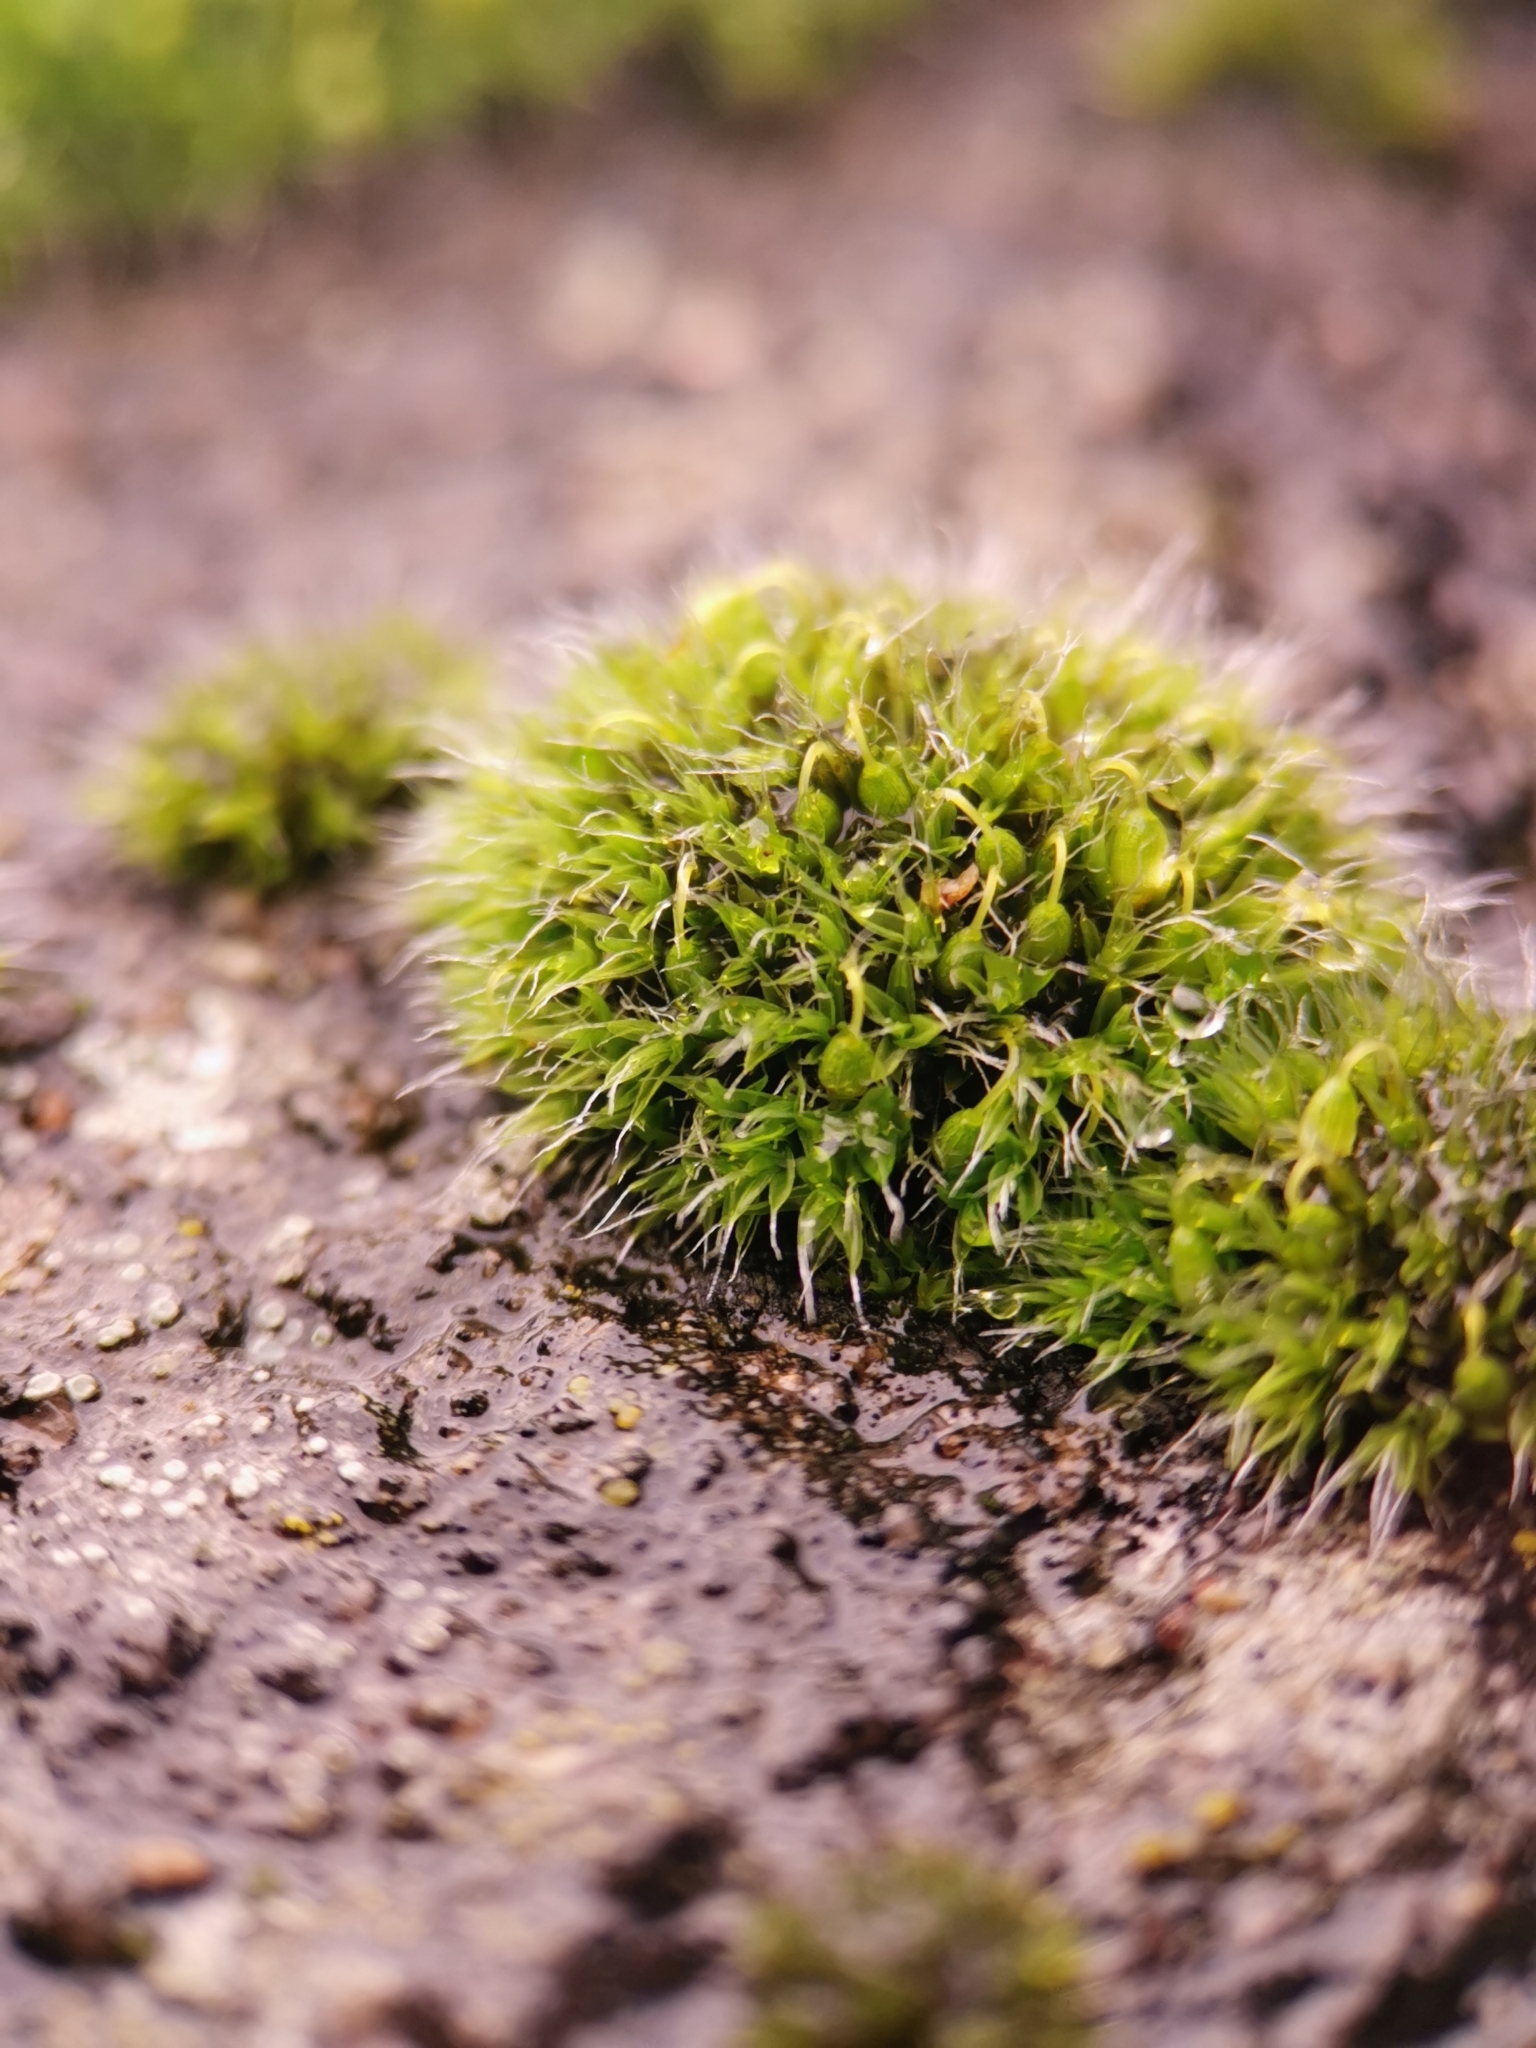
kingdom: Plantae
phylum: Bryophyta
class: Bryopsida
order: Grimmiales
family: Grimmiaceae
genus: Grimmia
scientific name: Grimmia pulvinata
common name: Grey-cushioned grimmia
